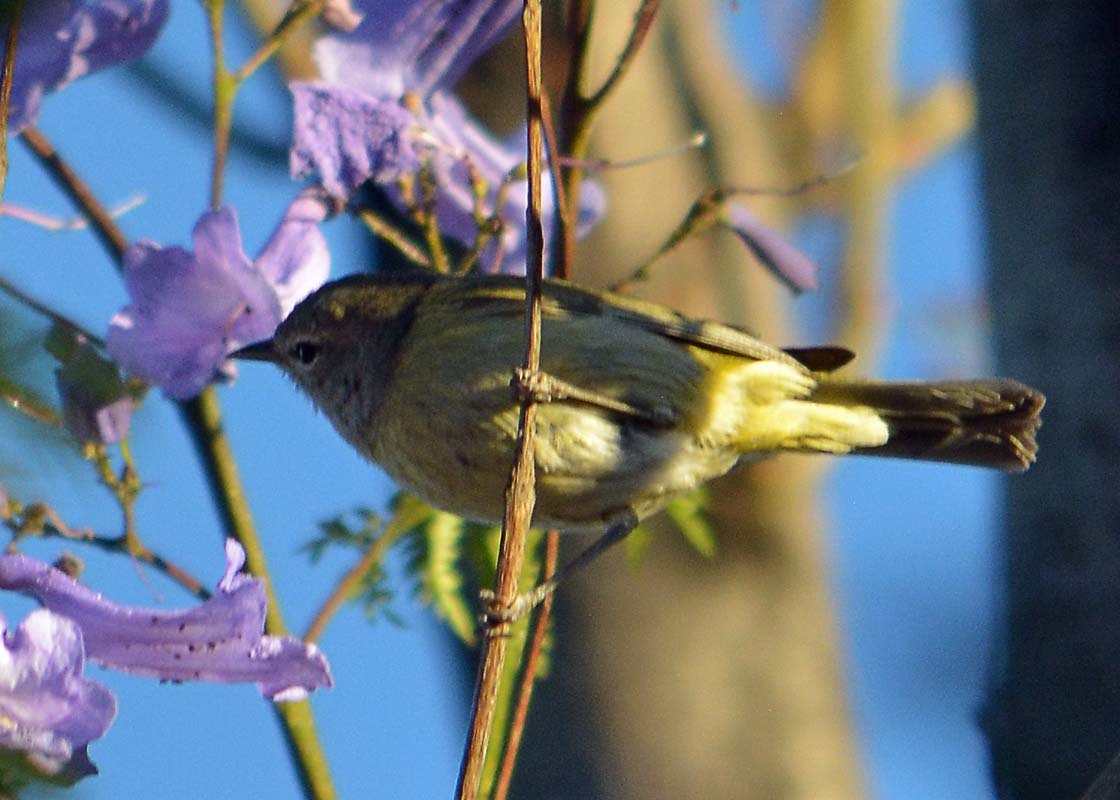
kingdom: Animalia
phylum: Chordata
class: Aves
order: Passeriformes
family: Parulidae
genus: Leiothlypis
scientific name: Leiothlypis celata
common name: Orange-crowned warbler
